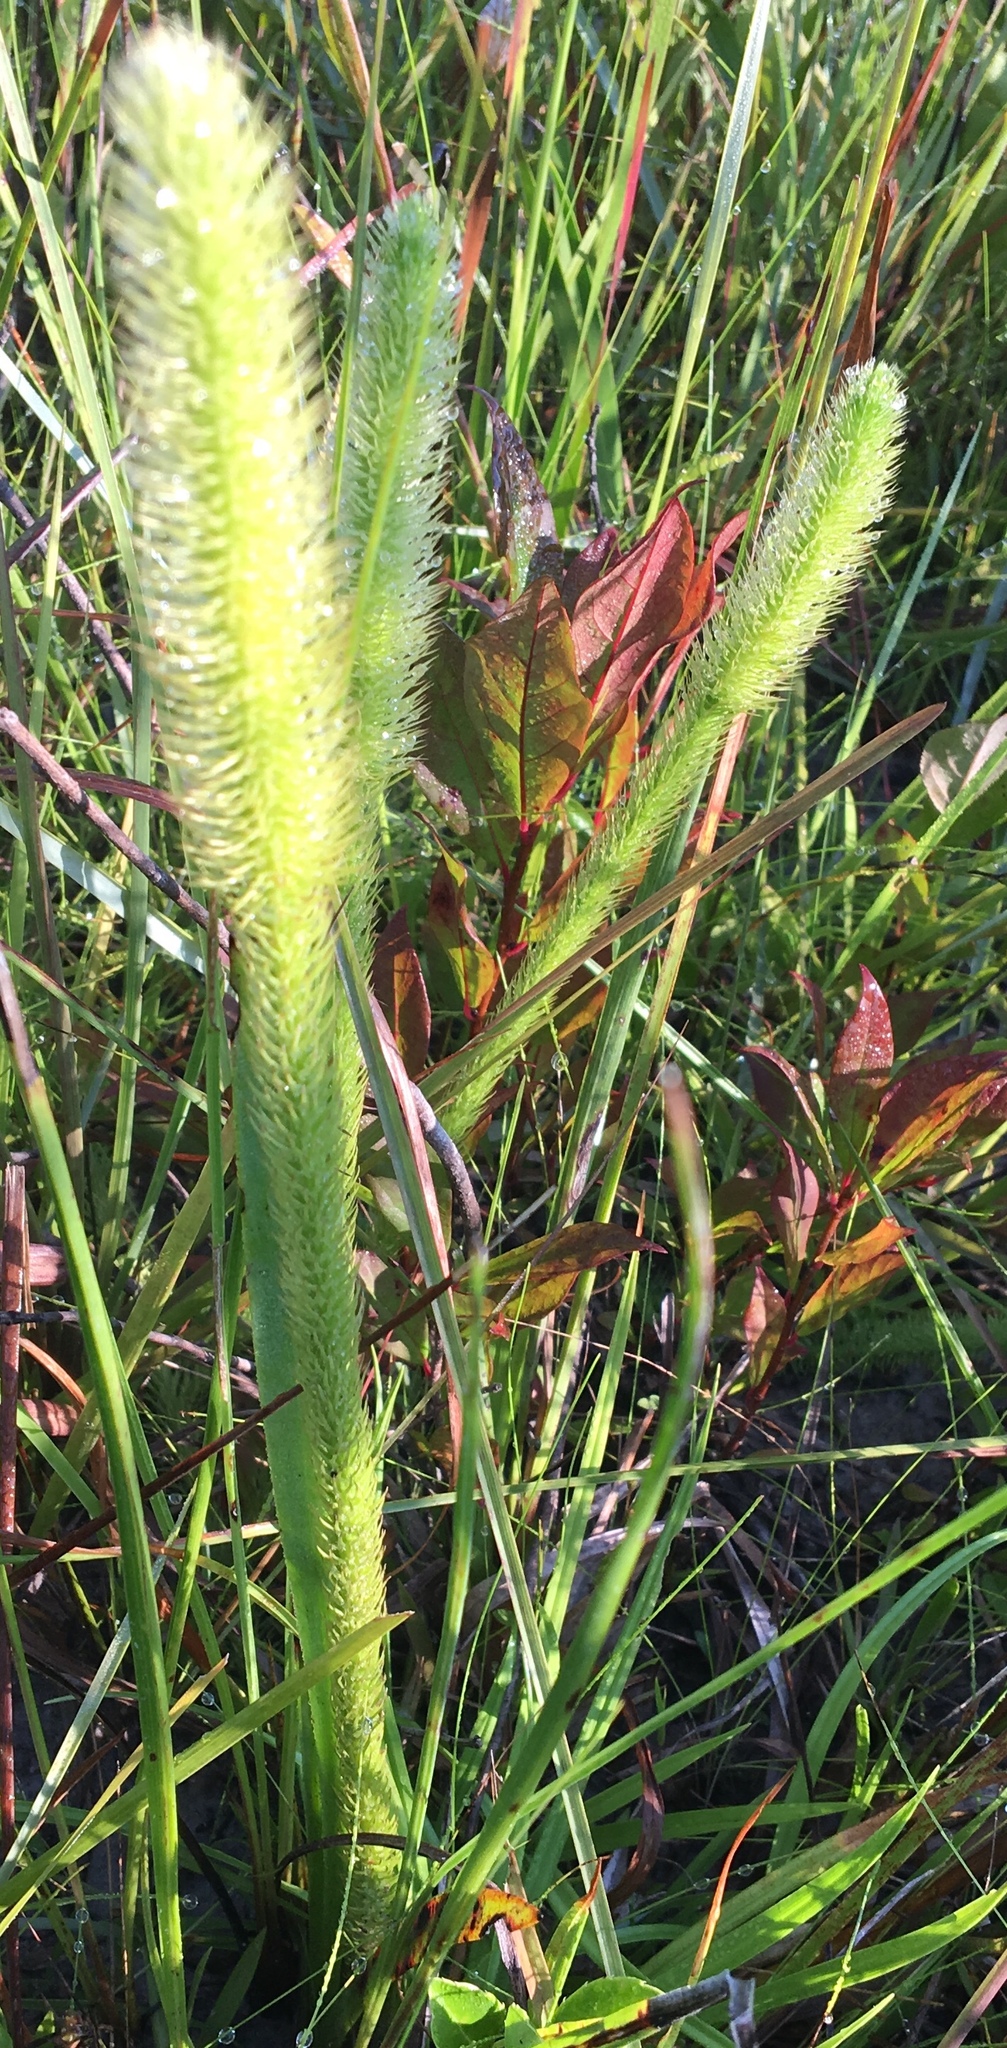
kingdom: Plantae
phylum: Tracheophyta
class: Lycopodiopsida
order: Lycopodiales
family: Lycopodiaceae
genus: Lycopodiella
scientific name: Lycopodiella alopecuroides
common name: Foxtail clubmoss
